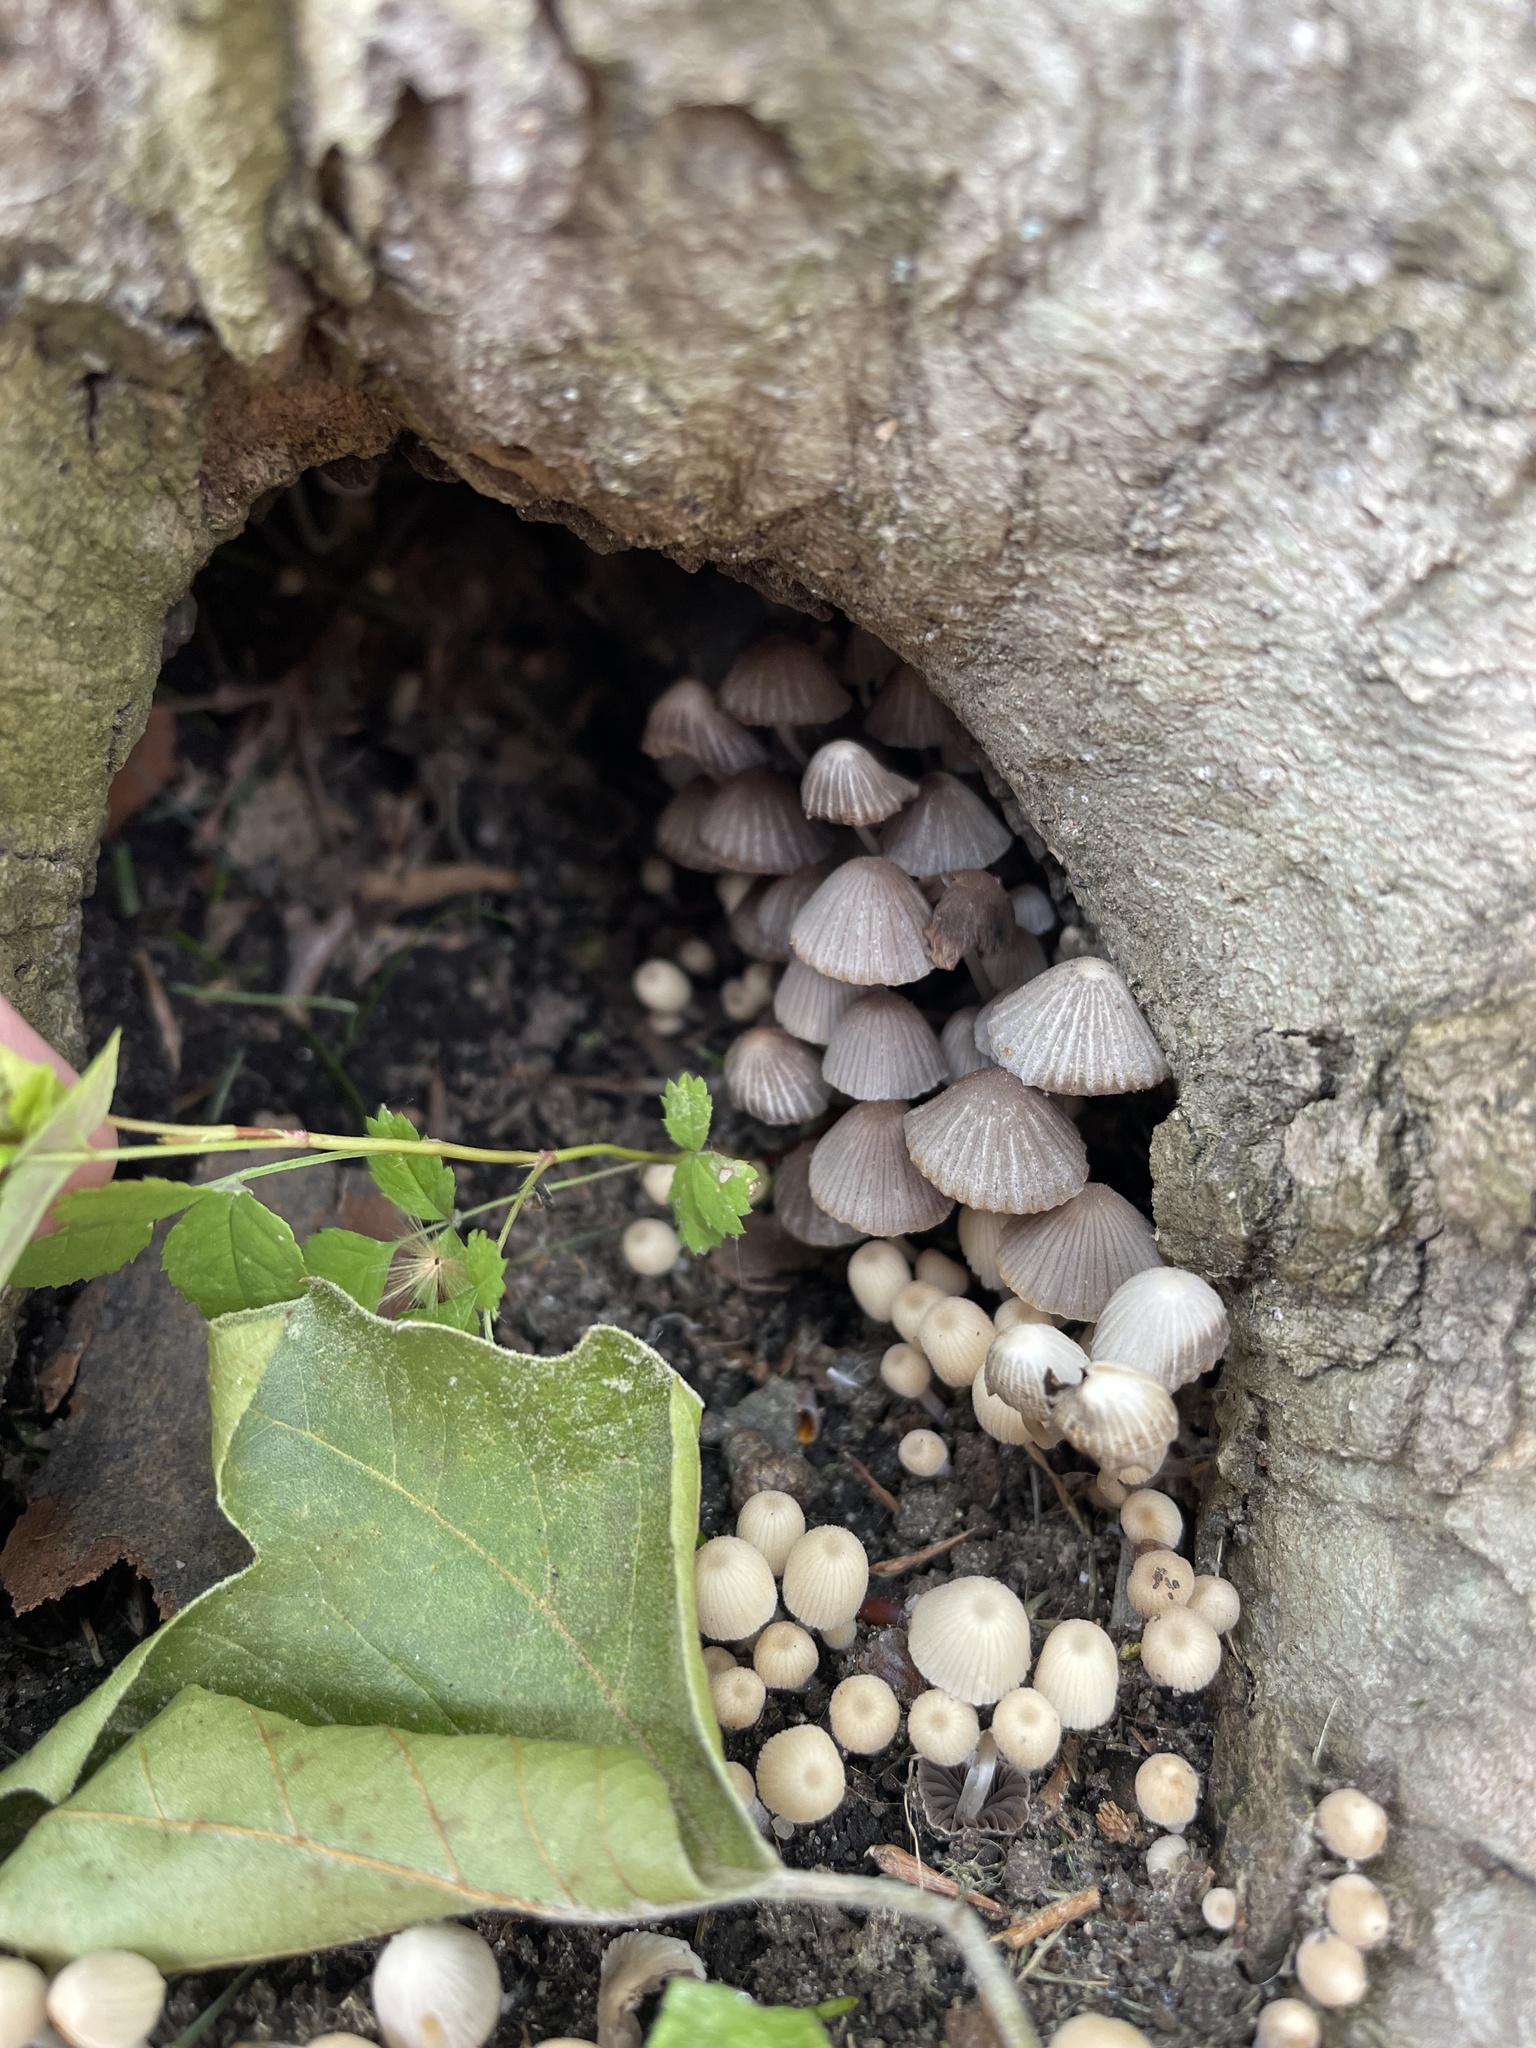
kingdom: Fungi
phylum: Basidiomycota
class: Agaricomycetes
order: Agaricales
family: Psathyrellaceae
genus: Coprinellus
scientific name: Coprinellus disseminatus
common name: Fairies' bonnets
